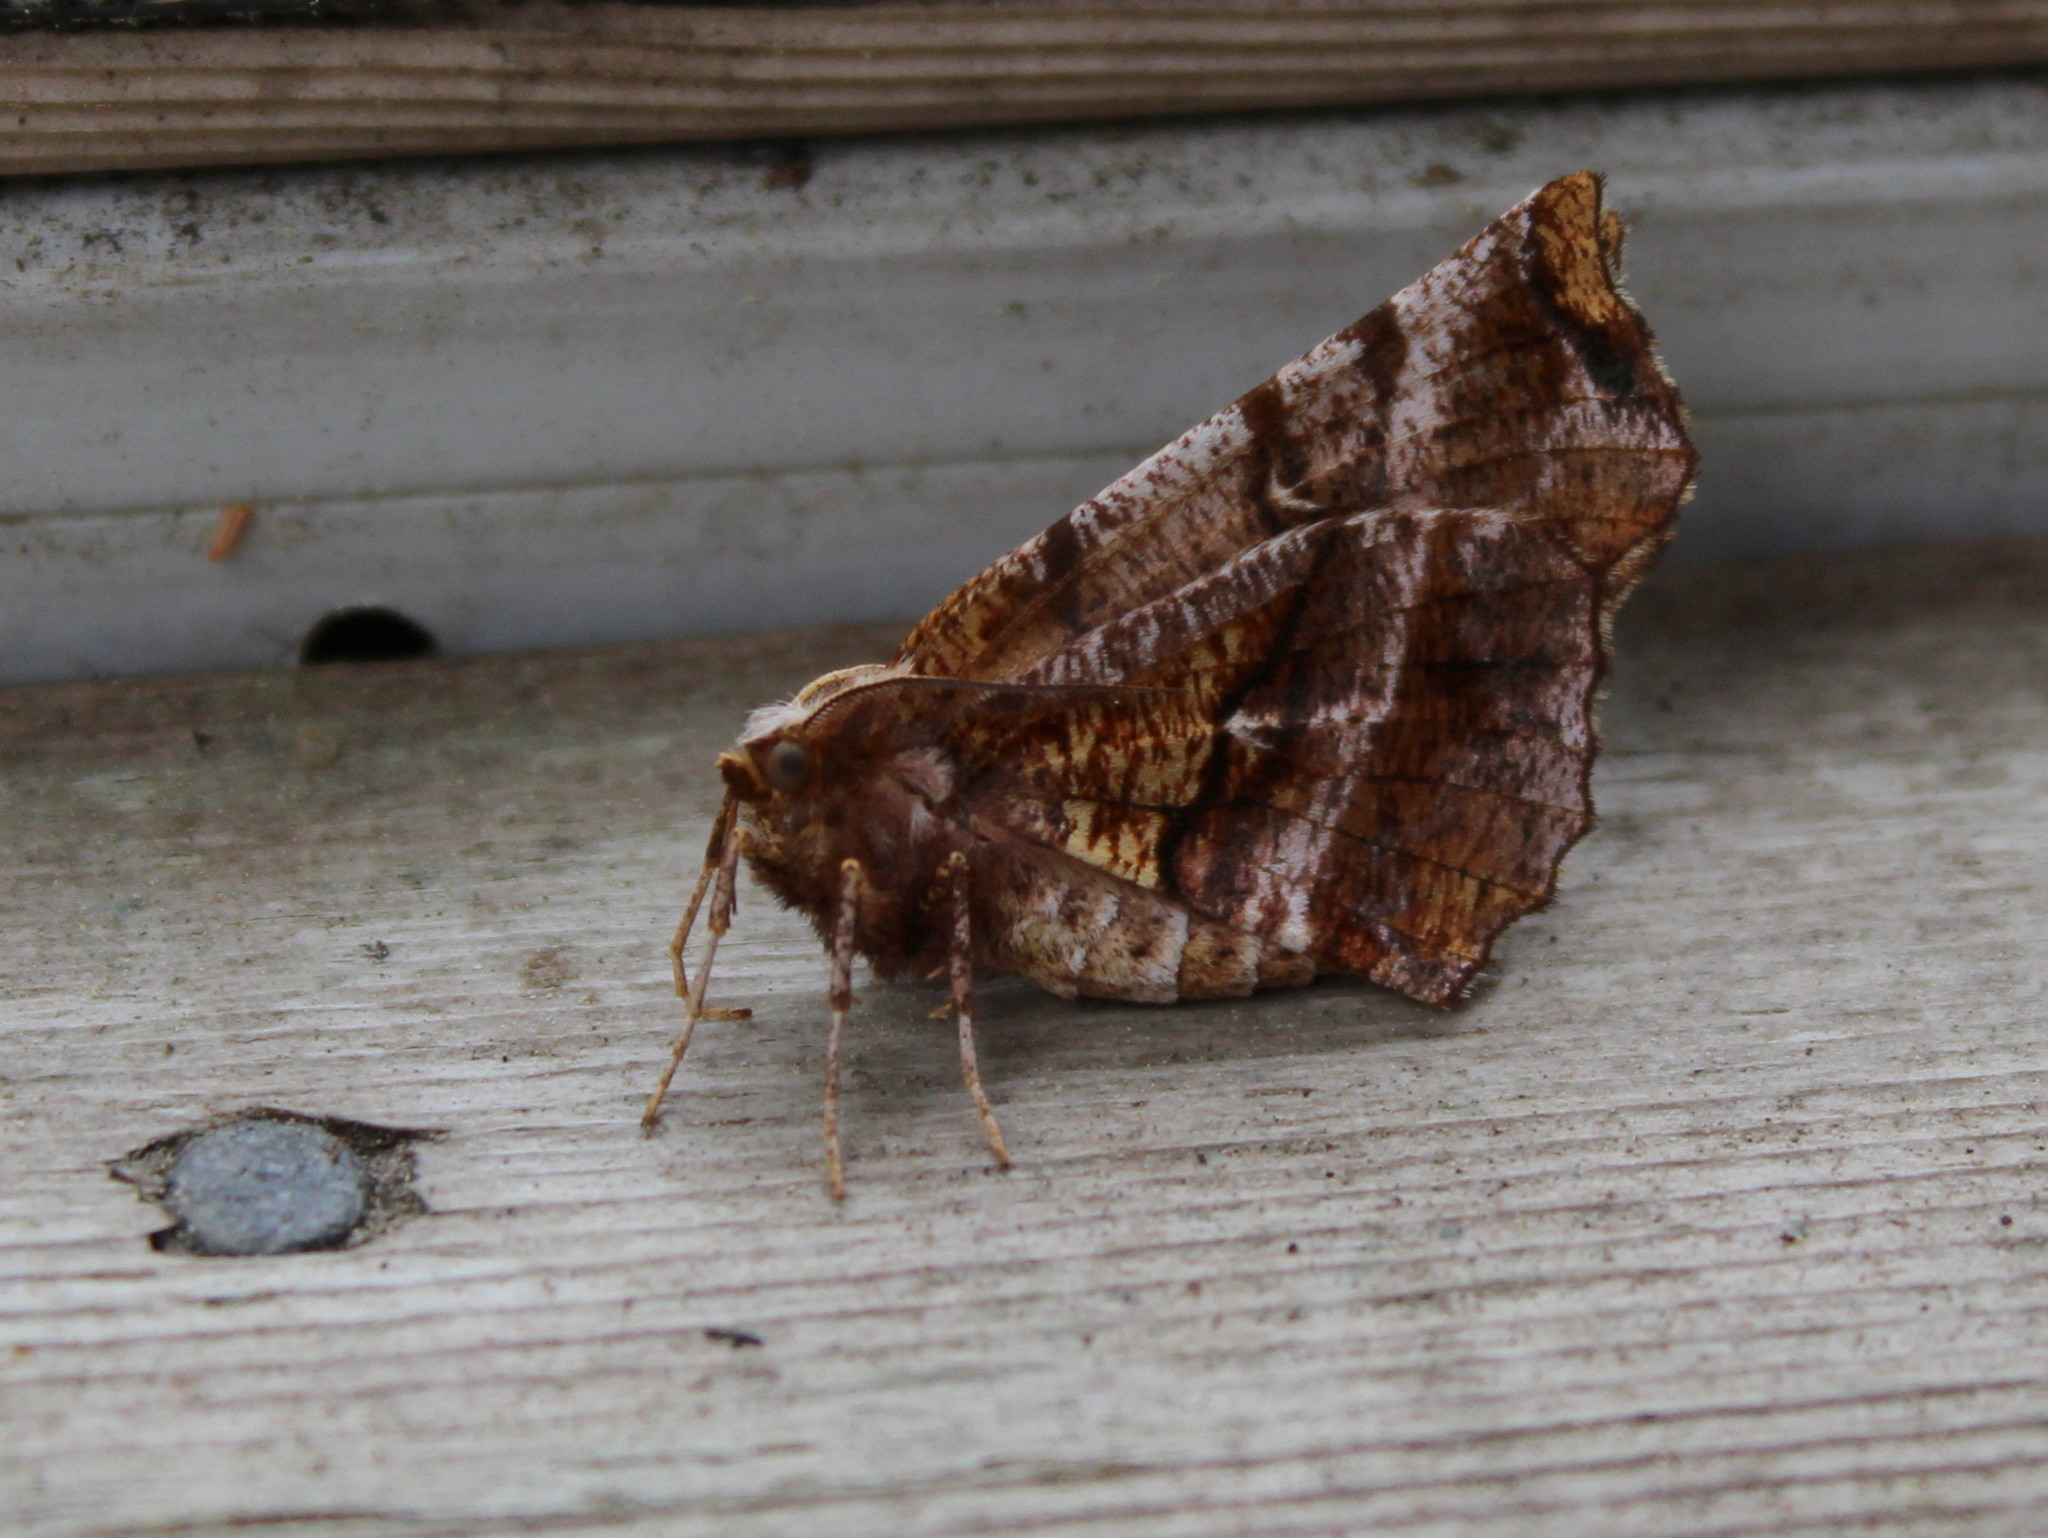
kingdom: Animalia
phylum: Arthropoda
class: Insecta
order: Lepidoptera
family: Geometridae
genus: Selenia
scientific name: Selenia alciphearia
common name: Brown-tipped thorn
